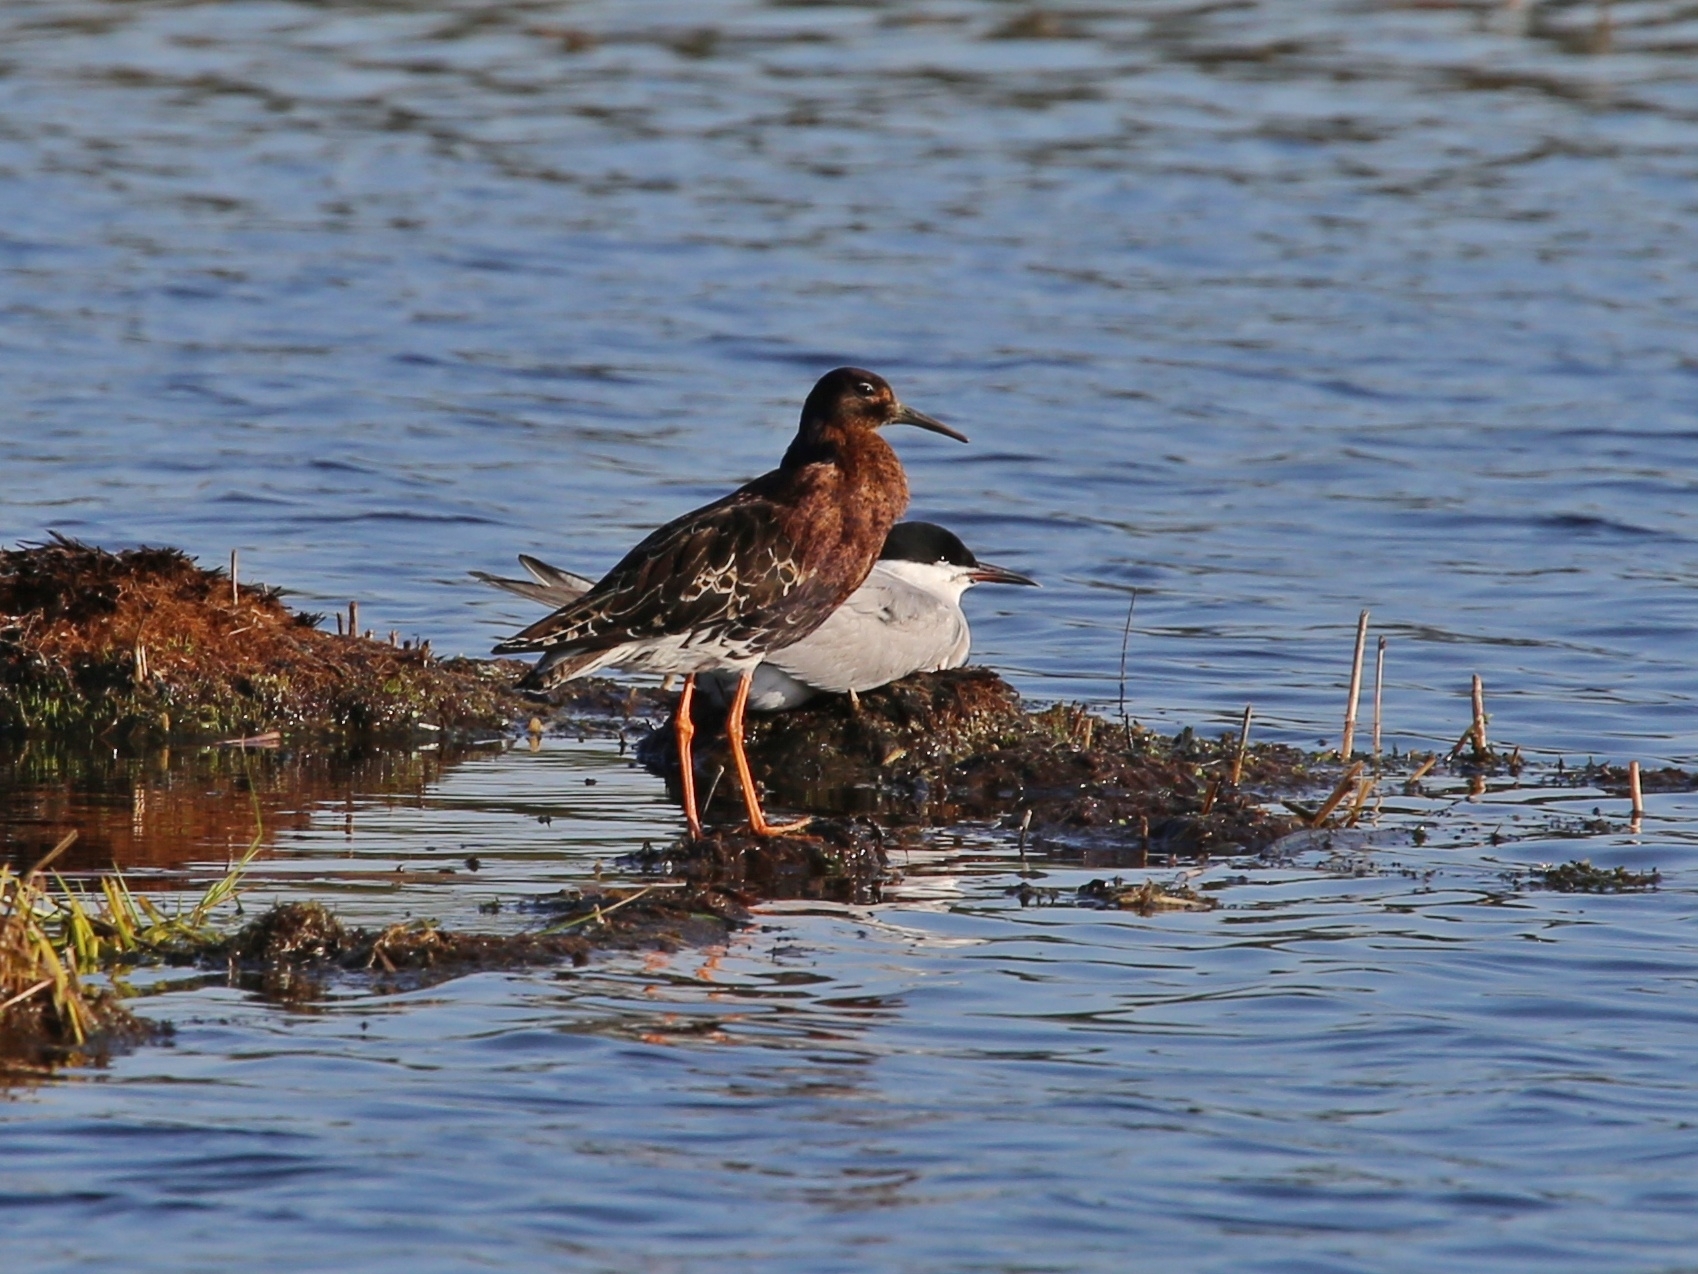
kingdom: Animalia
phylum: Chordata
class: Aves
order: Charadriiformes
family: Scolopacidae
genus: Calidris
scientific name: Calidris pugnax
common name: Ruff
